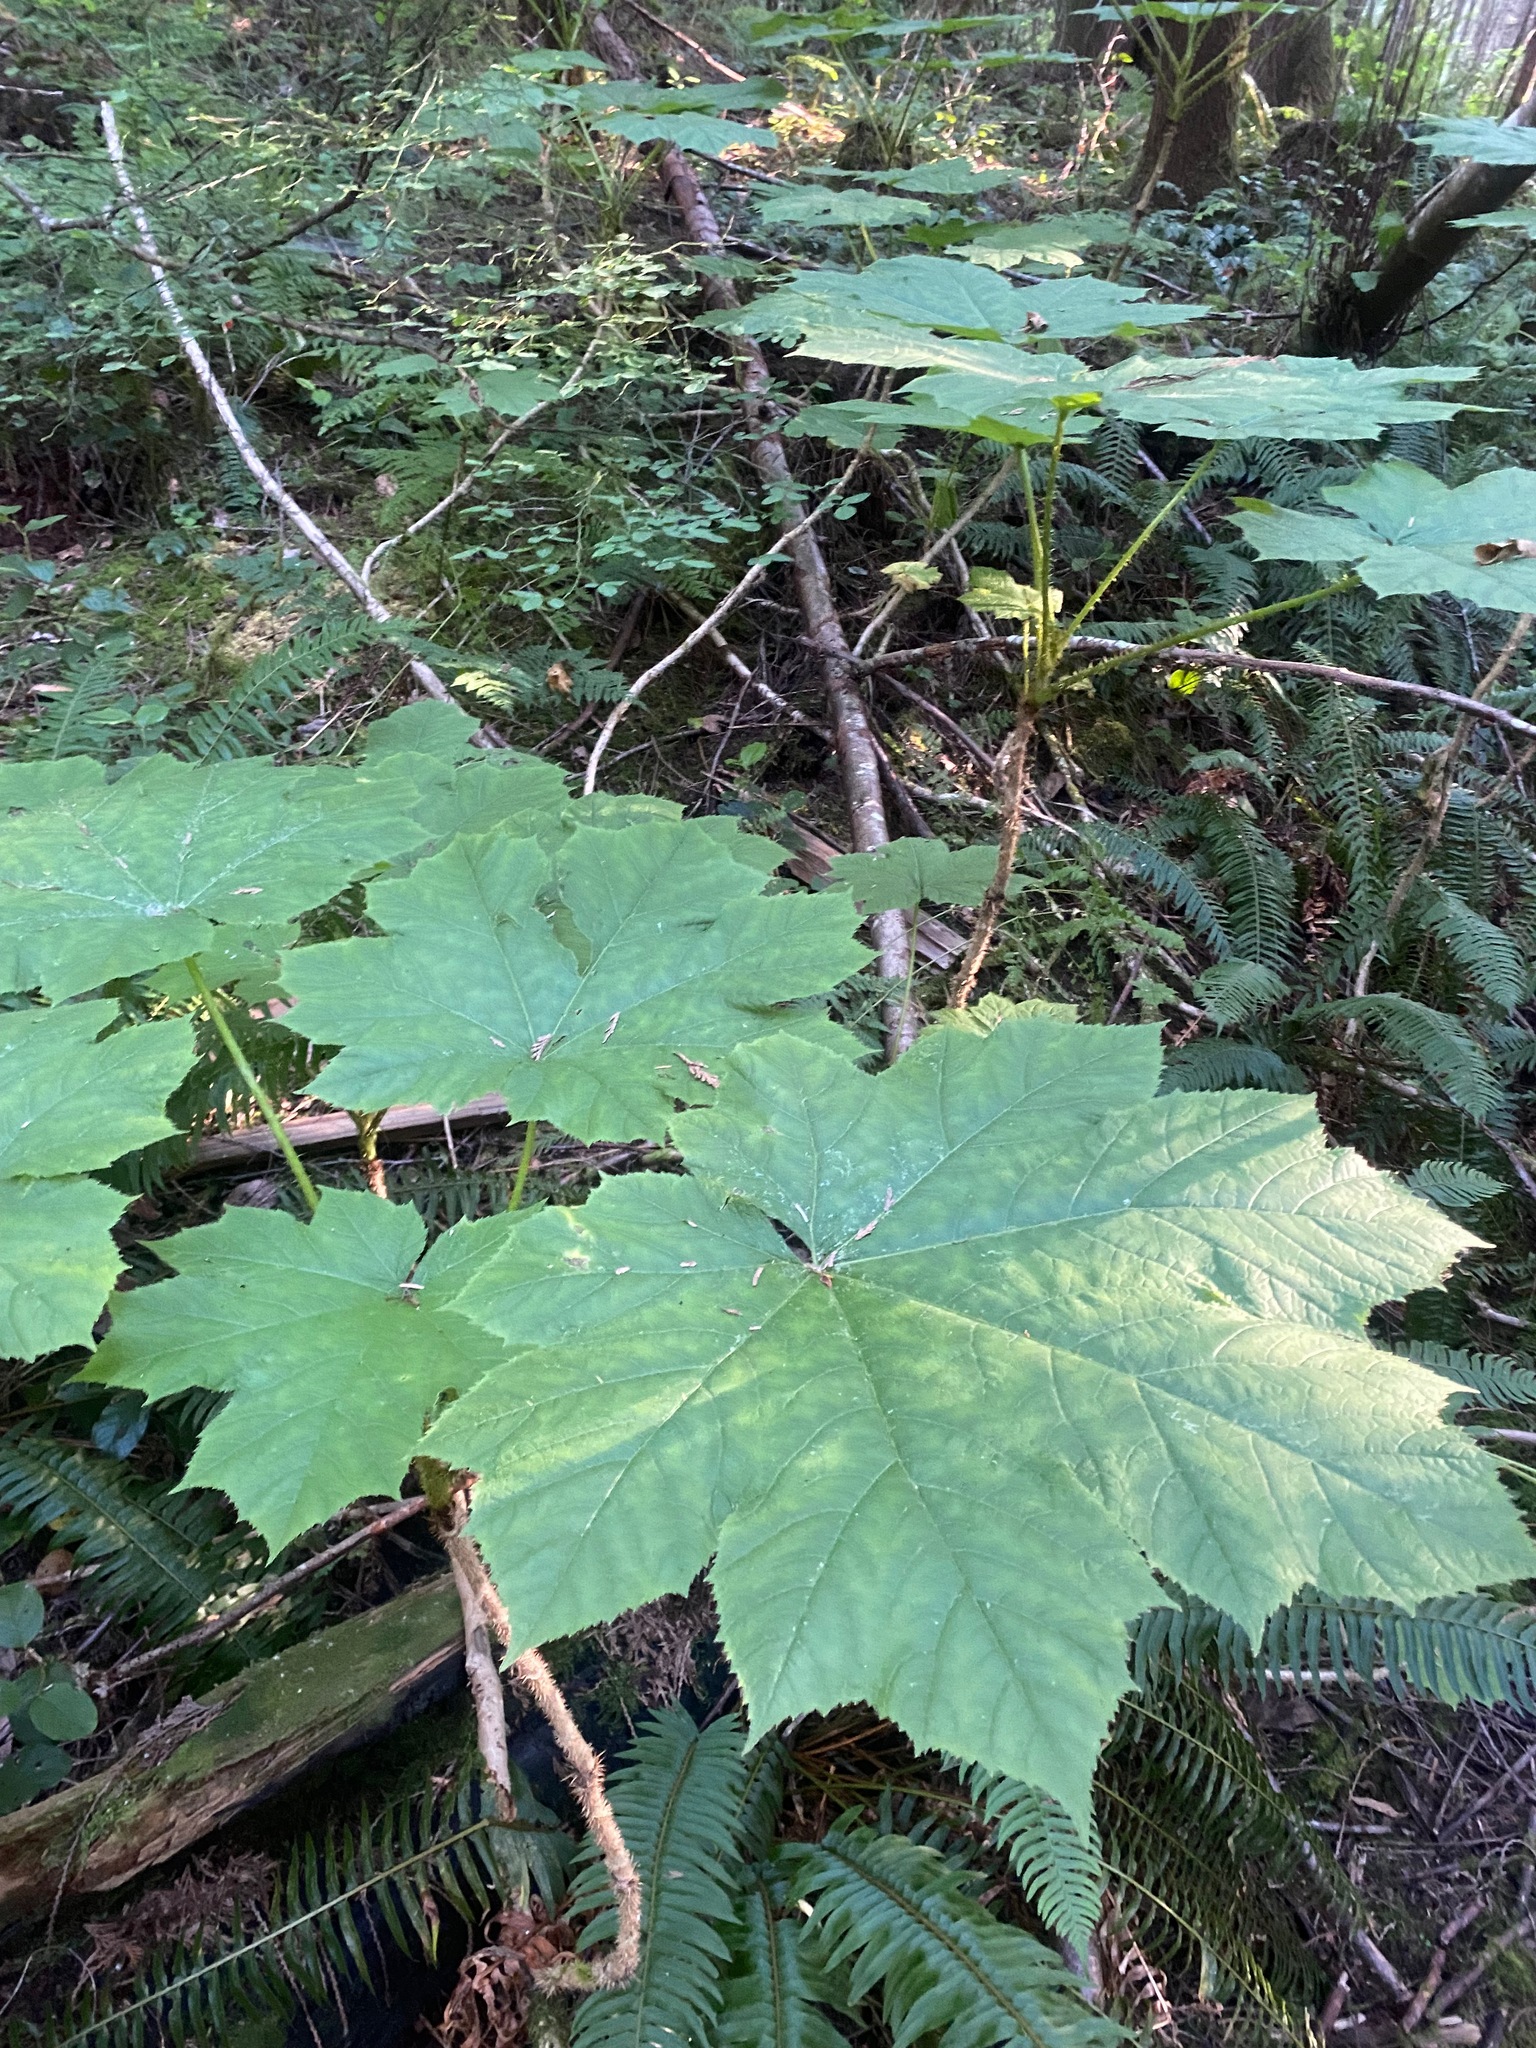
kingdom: Plantae
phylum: Tracheophyta
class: Magnoliopsida
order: Apiales
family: Araliaceae
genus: Oplopanax
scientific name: Oplopanax horridus
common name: Devil's walking-stick
